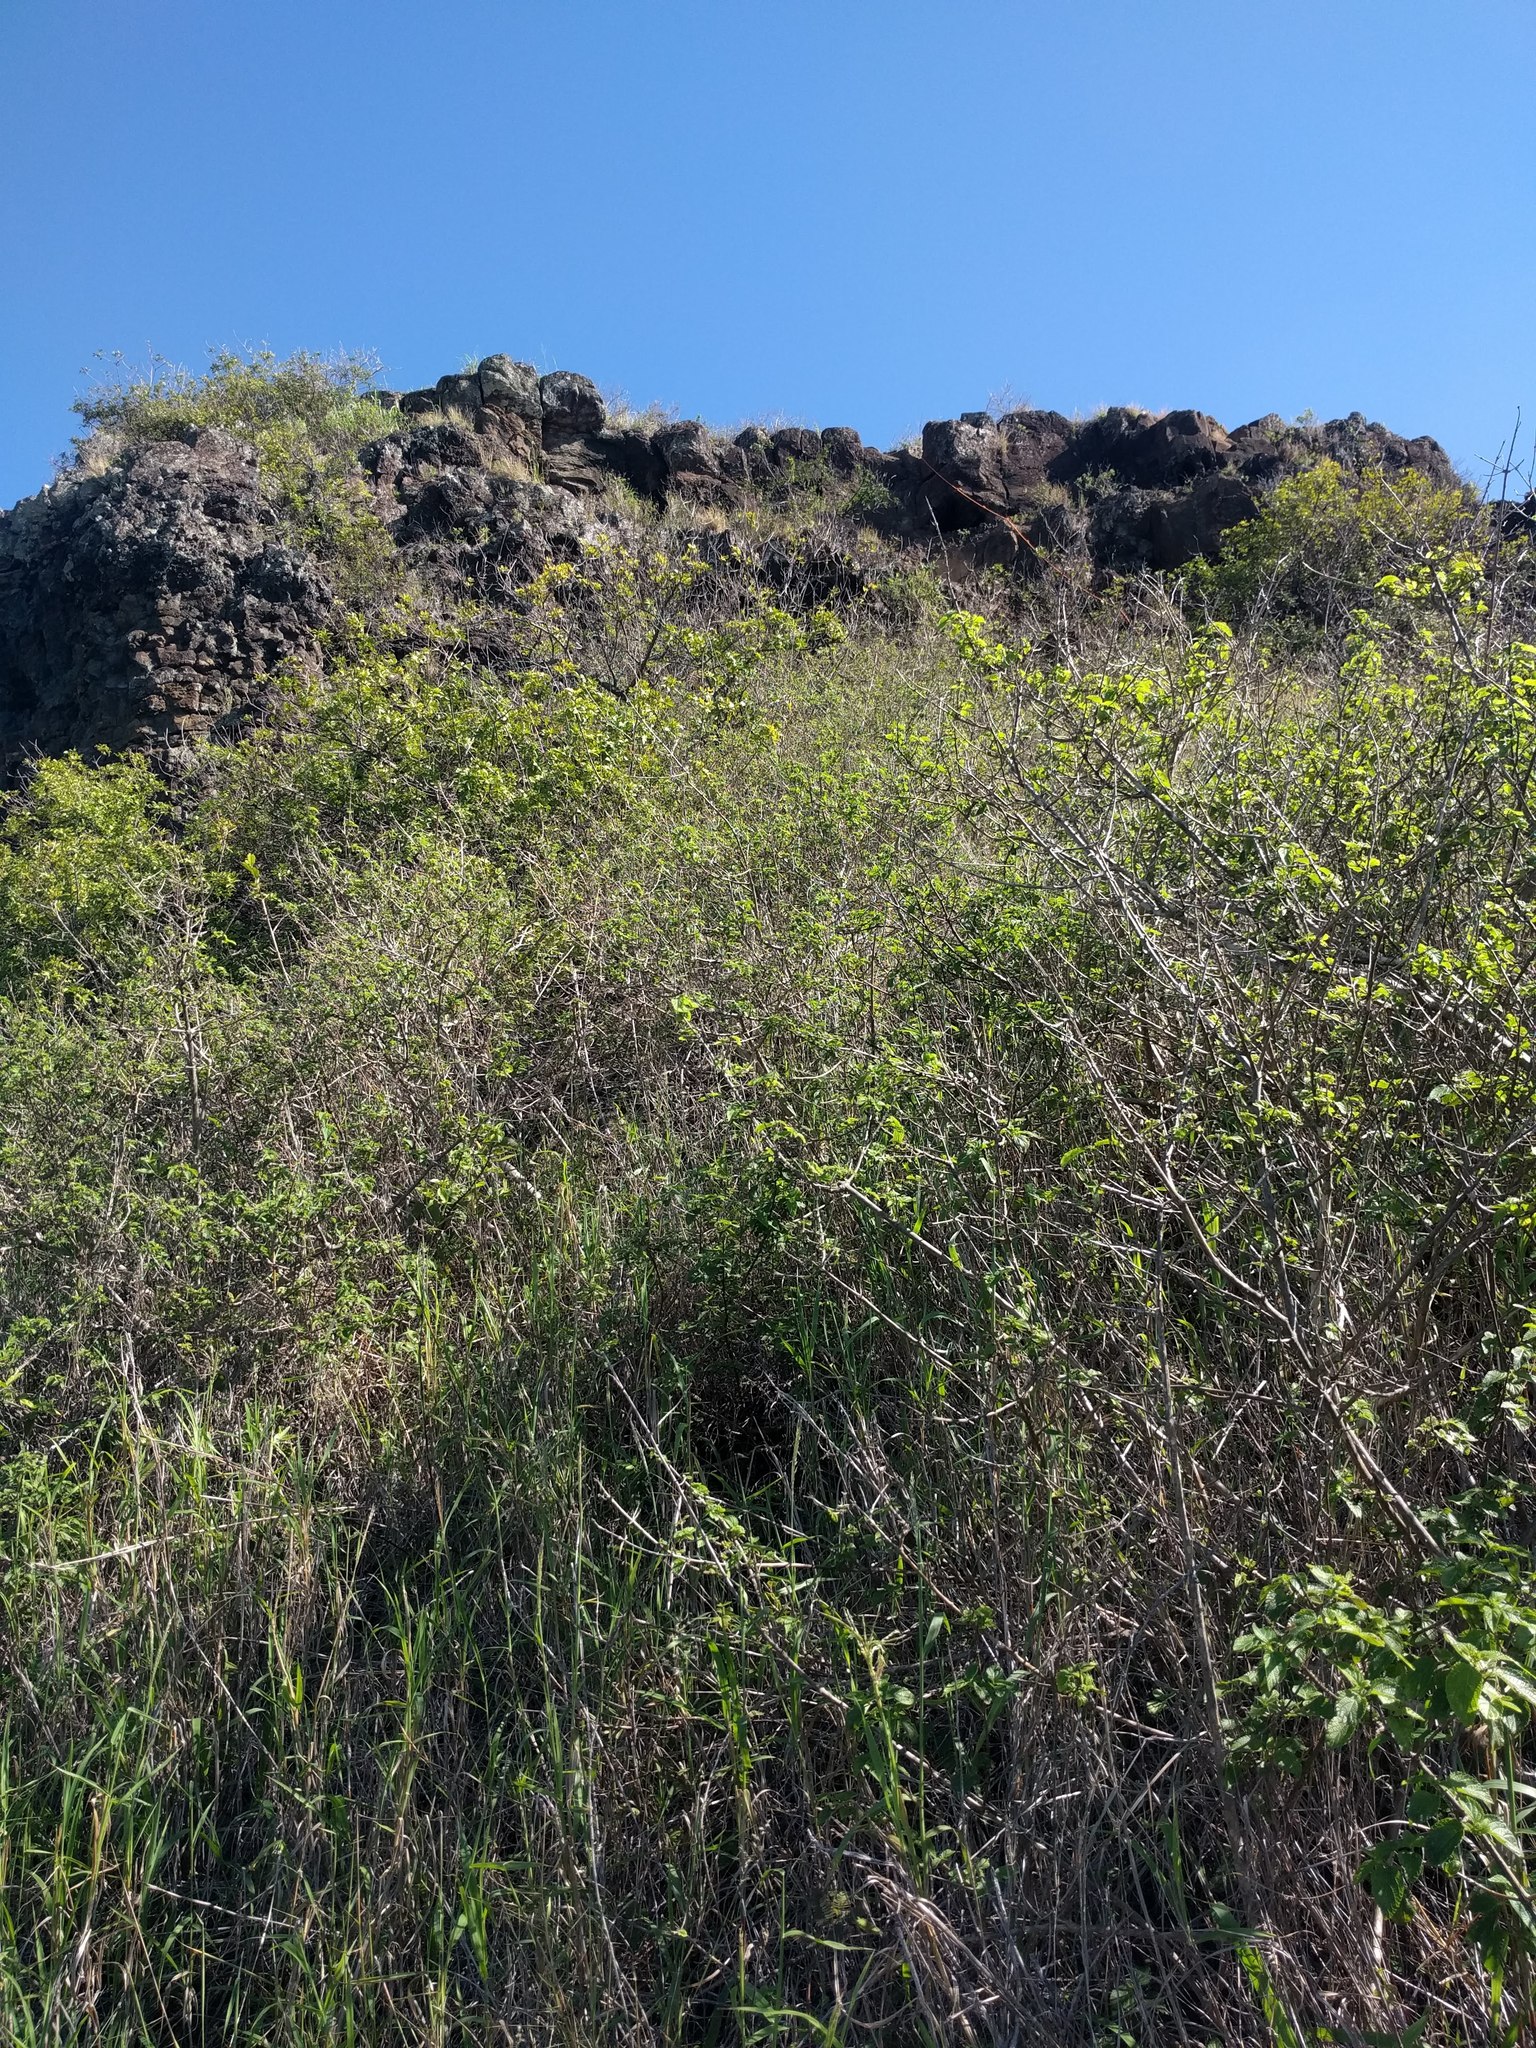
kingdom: Plantae
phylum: Tracheophyta
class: Magnoliopsida
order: Sapindales
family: Anacardiaceae
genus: Schinus
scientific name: Schinus terebinthifolia
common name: Brazilian peppertree
